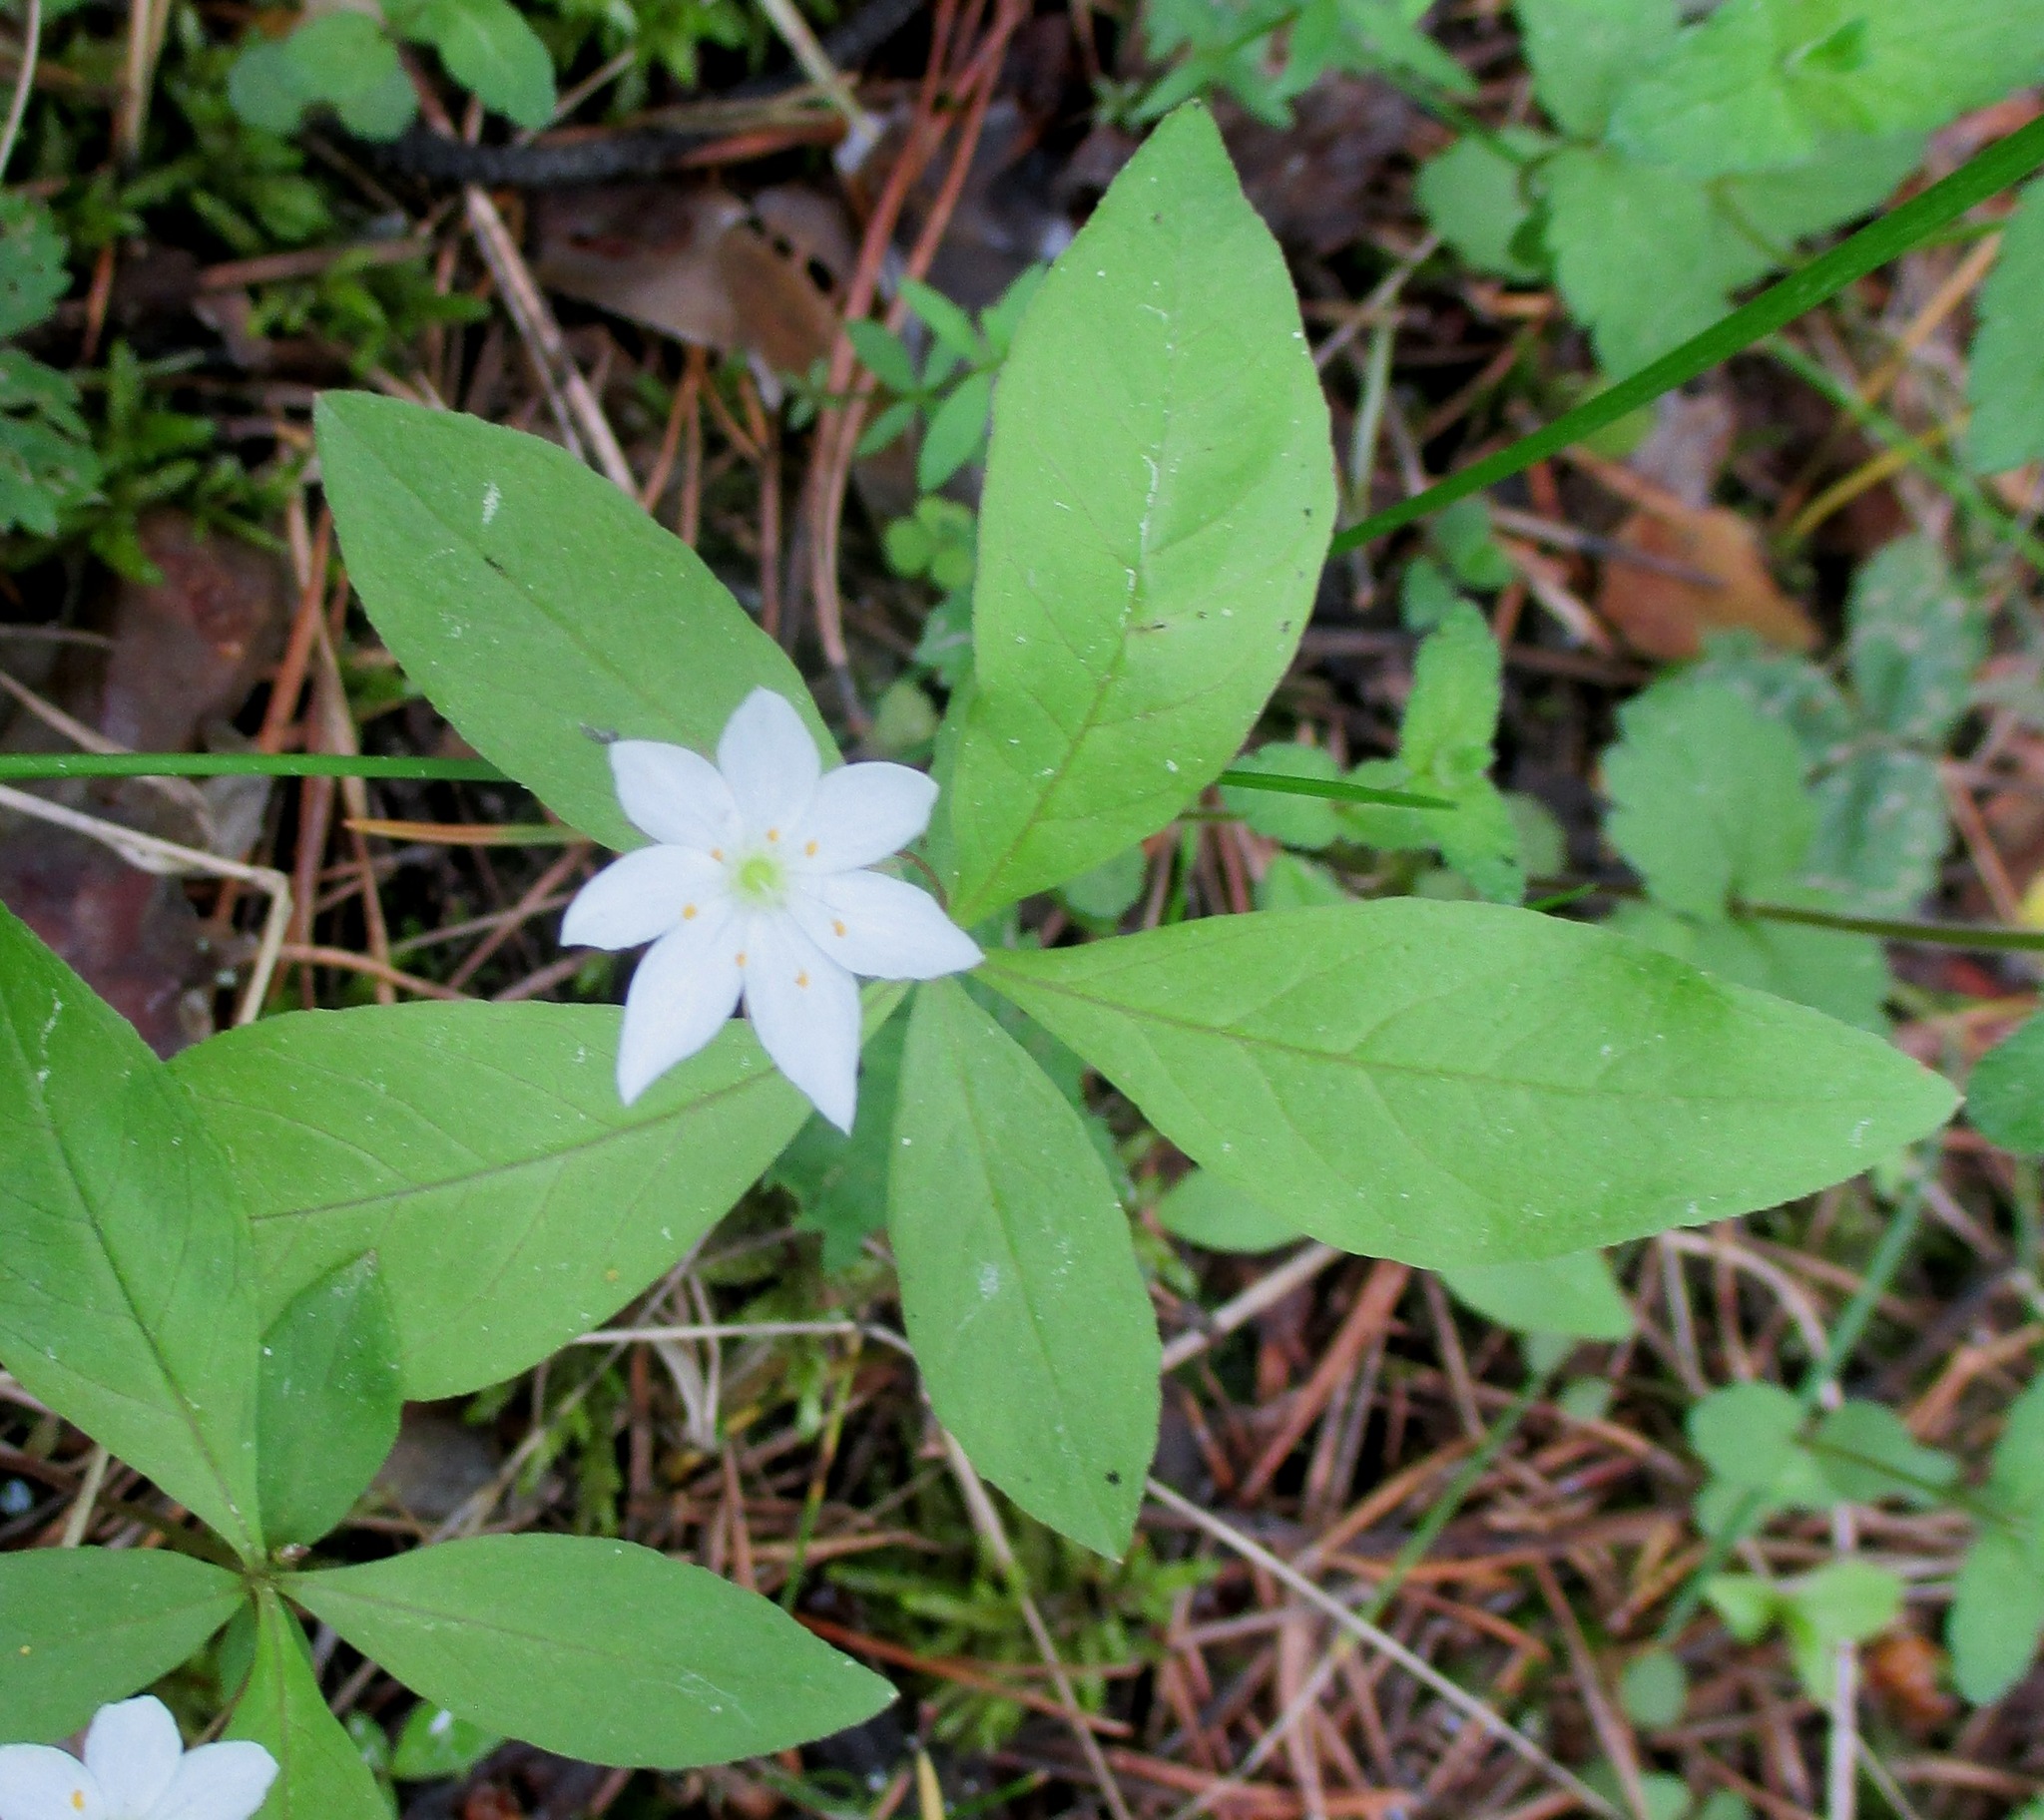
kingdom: Plantae
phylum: Tracheophyta
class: Magnoliopsida
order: Ericales
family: Primulaceae
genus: Lysimachia
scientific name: Lysimachia europaea
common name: Arctic starflower
